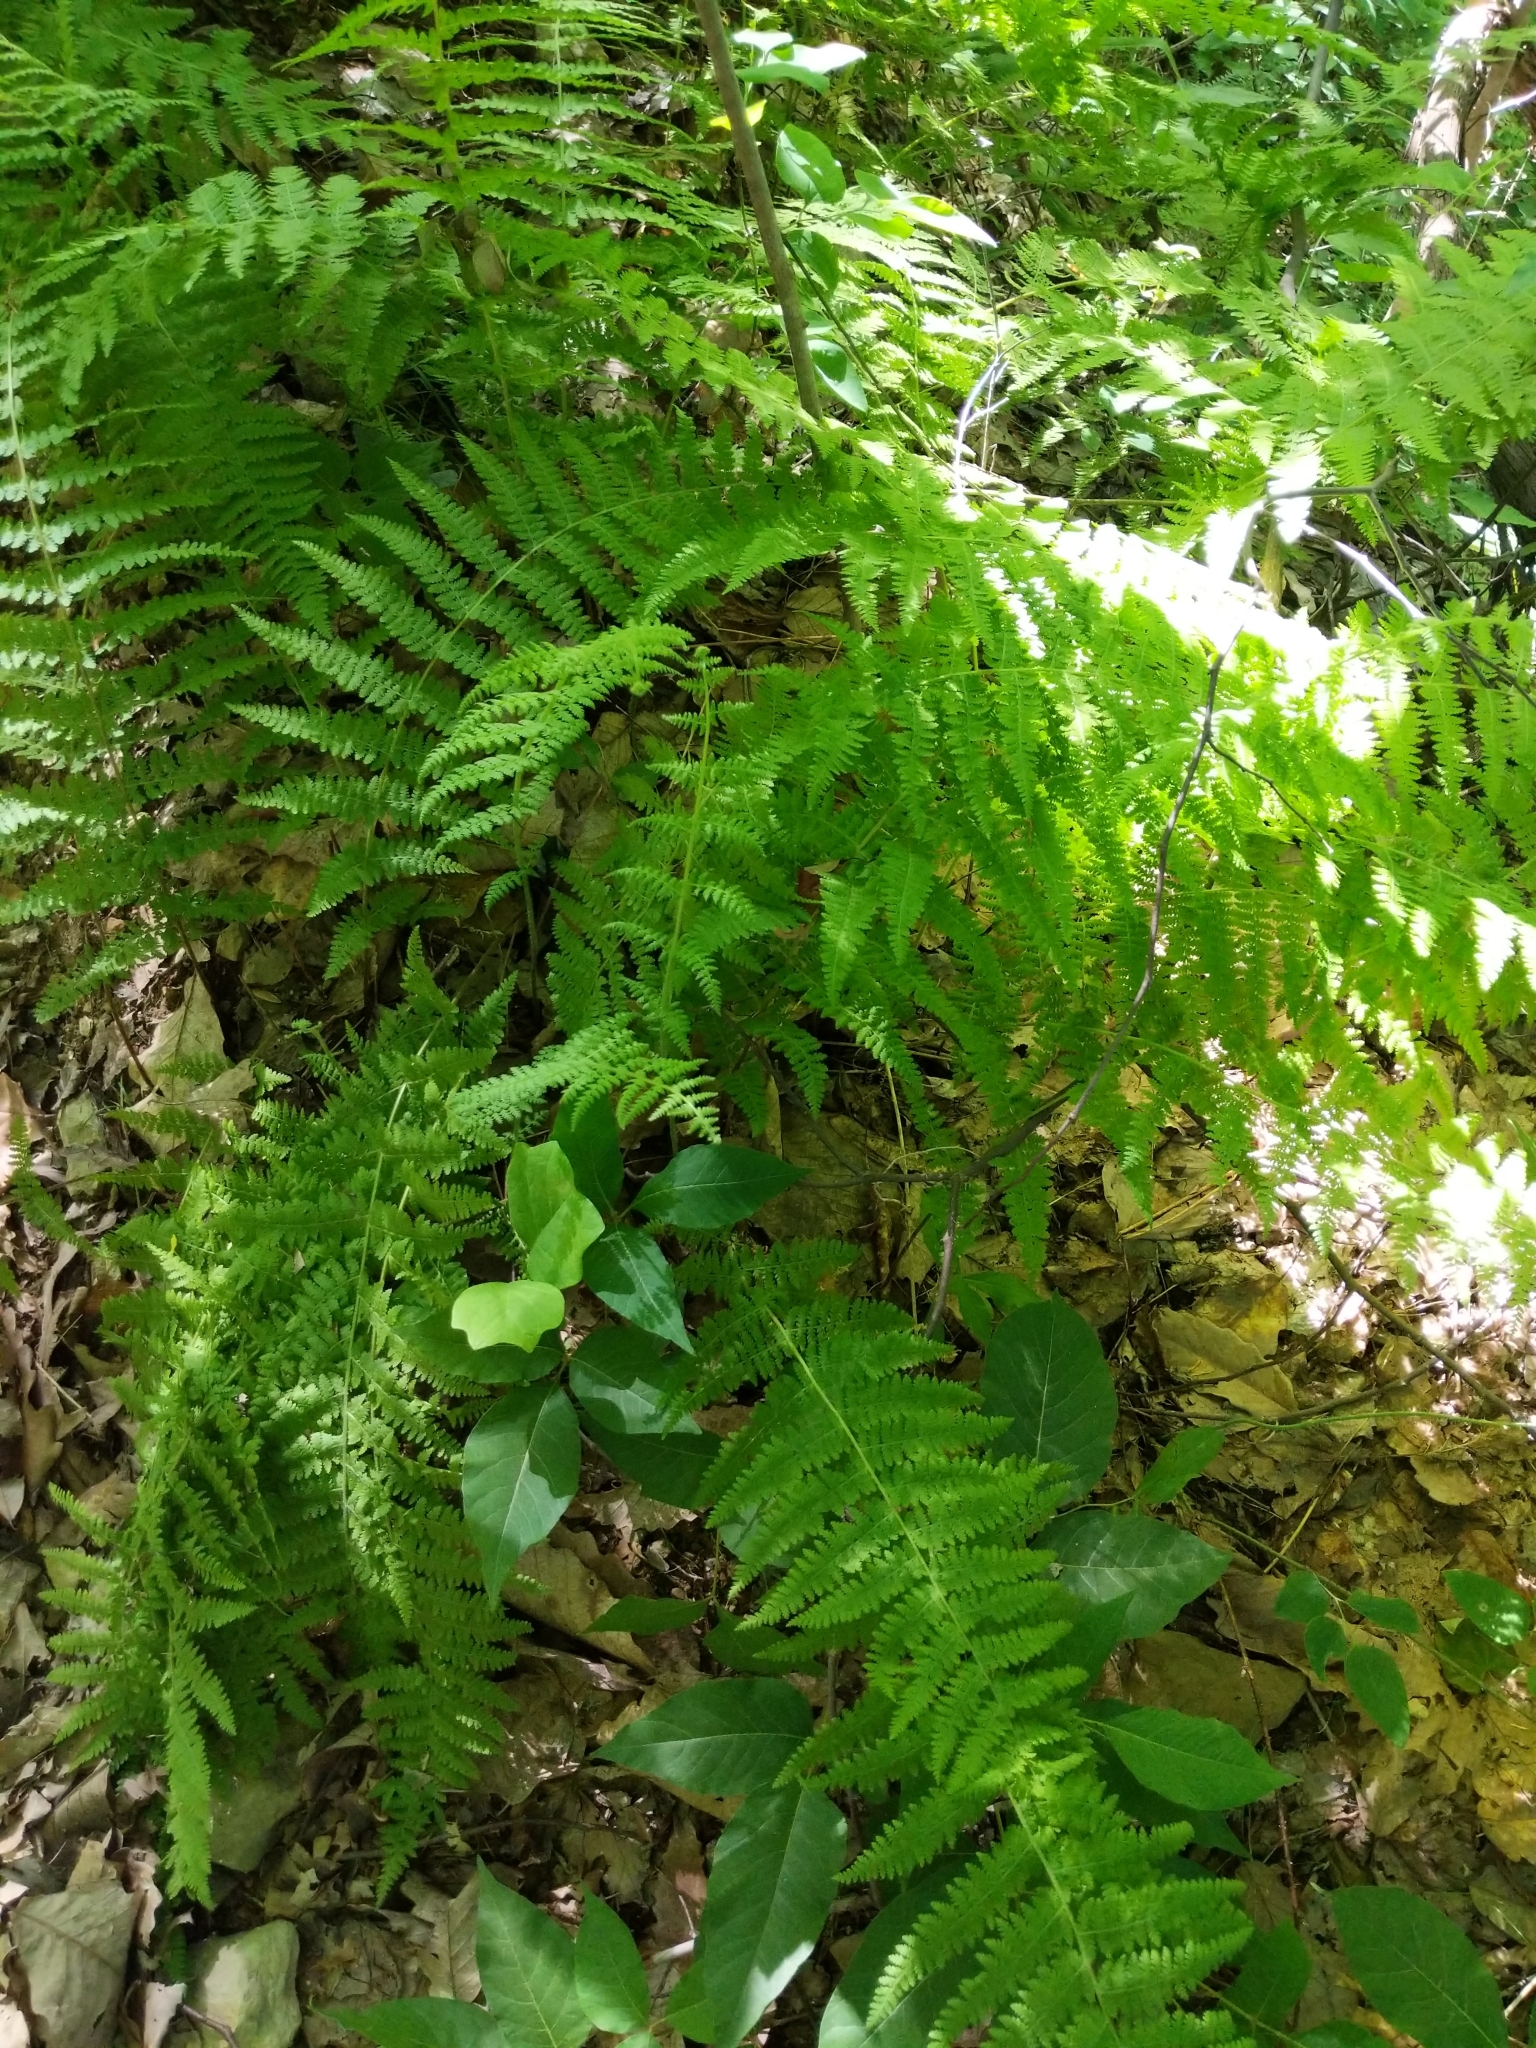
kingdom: Plantae
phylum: Tracheophyta
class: Polypodiopsida
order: Polypodiales
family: Dennstaedtiaceae
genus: Sitobolium
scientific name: Sitobolium punctilobum
